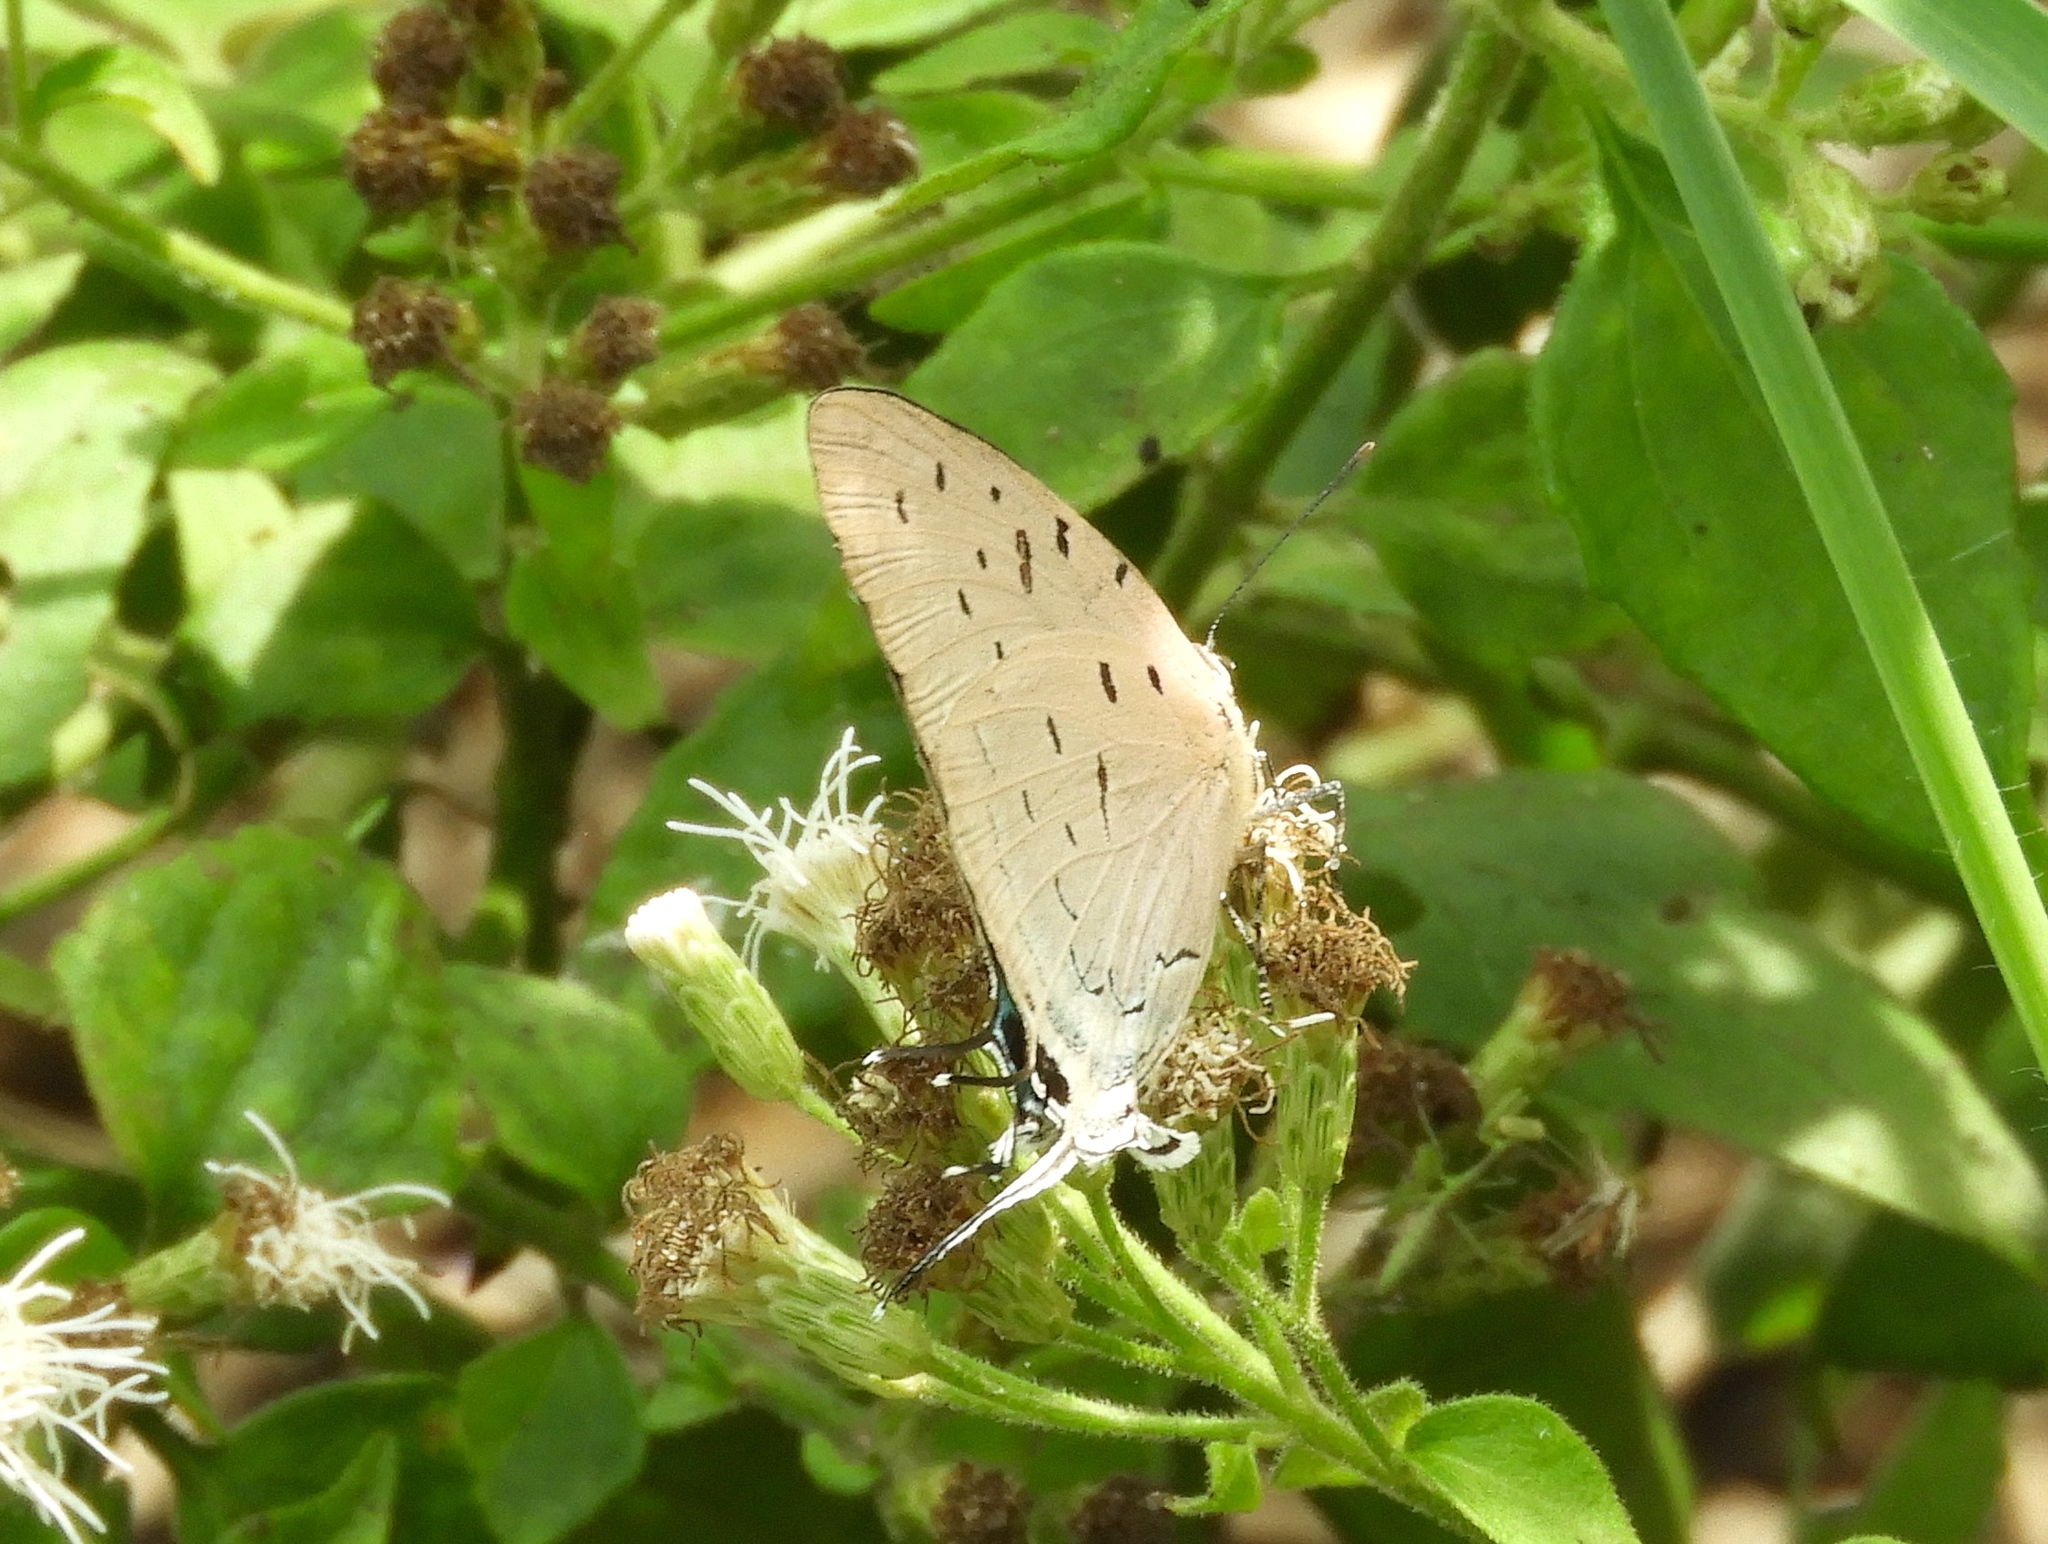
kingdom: Animalia
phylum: Arthropoda
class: Insecta
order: Lepidoptera
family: Lycaenidae
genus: Pseudolycaena
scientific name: Pseudolycaena damo
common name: Sky-blue hairstreak
